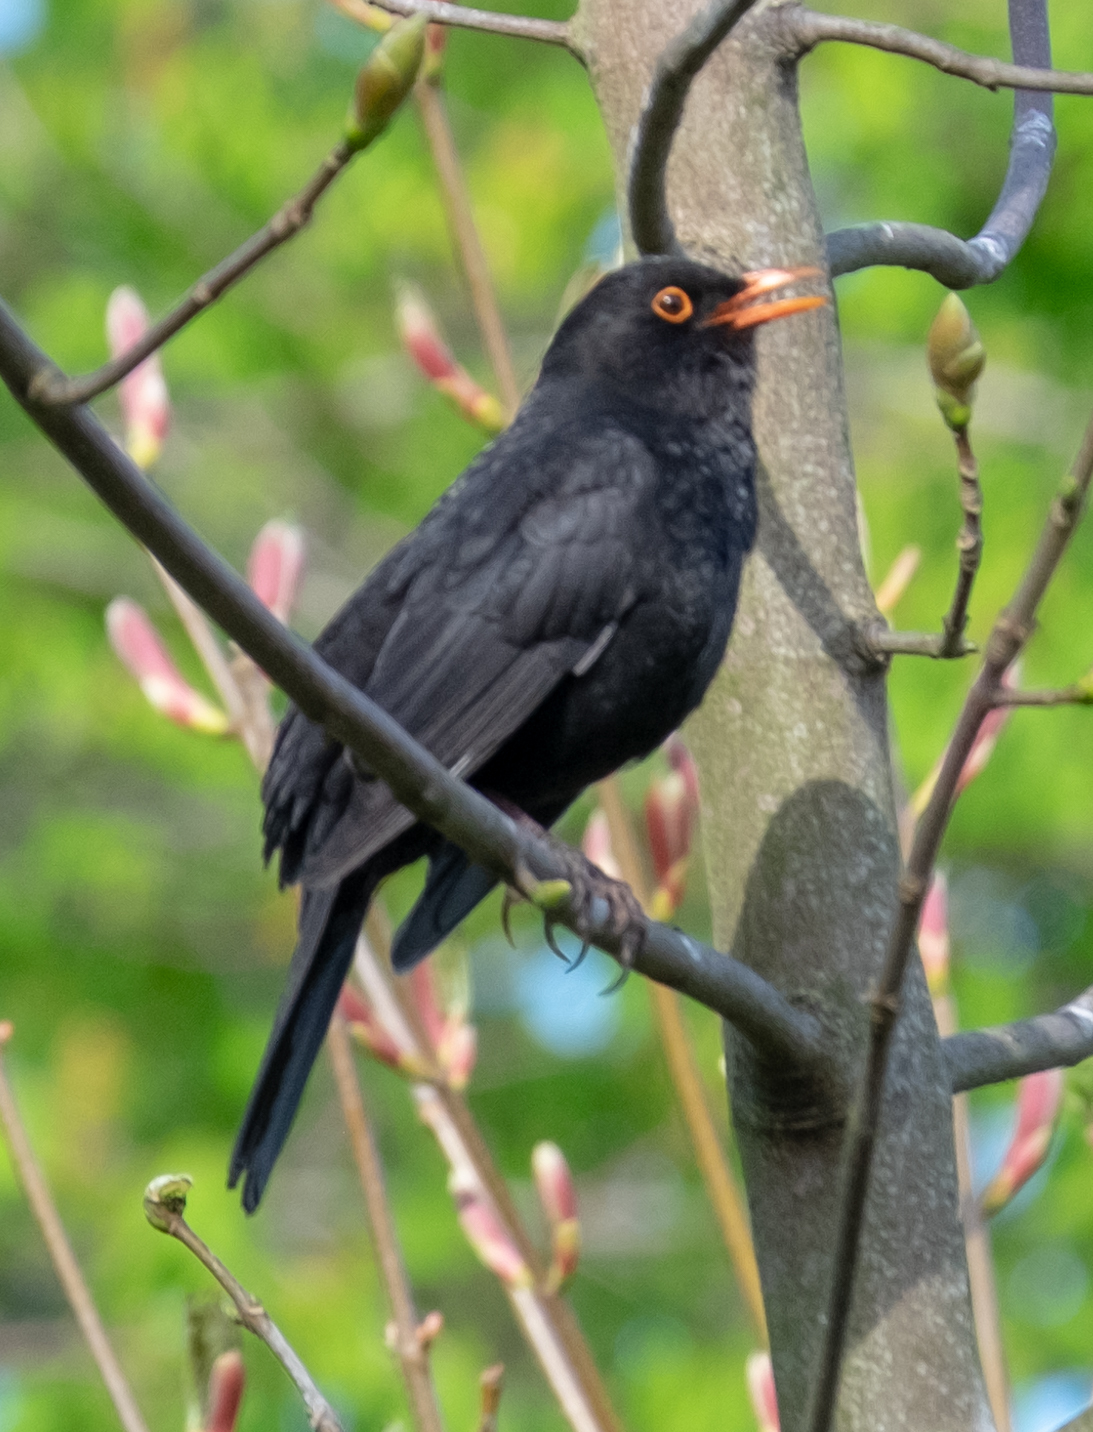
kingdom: Animalia
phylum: Chordata
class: Aves
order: Passeriformes
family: Turdidae
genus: Turdus
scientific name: Turdus merula
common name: Common blackbird
